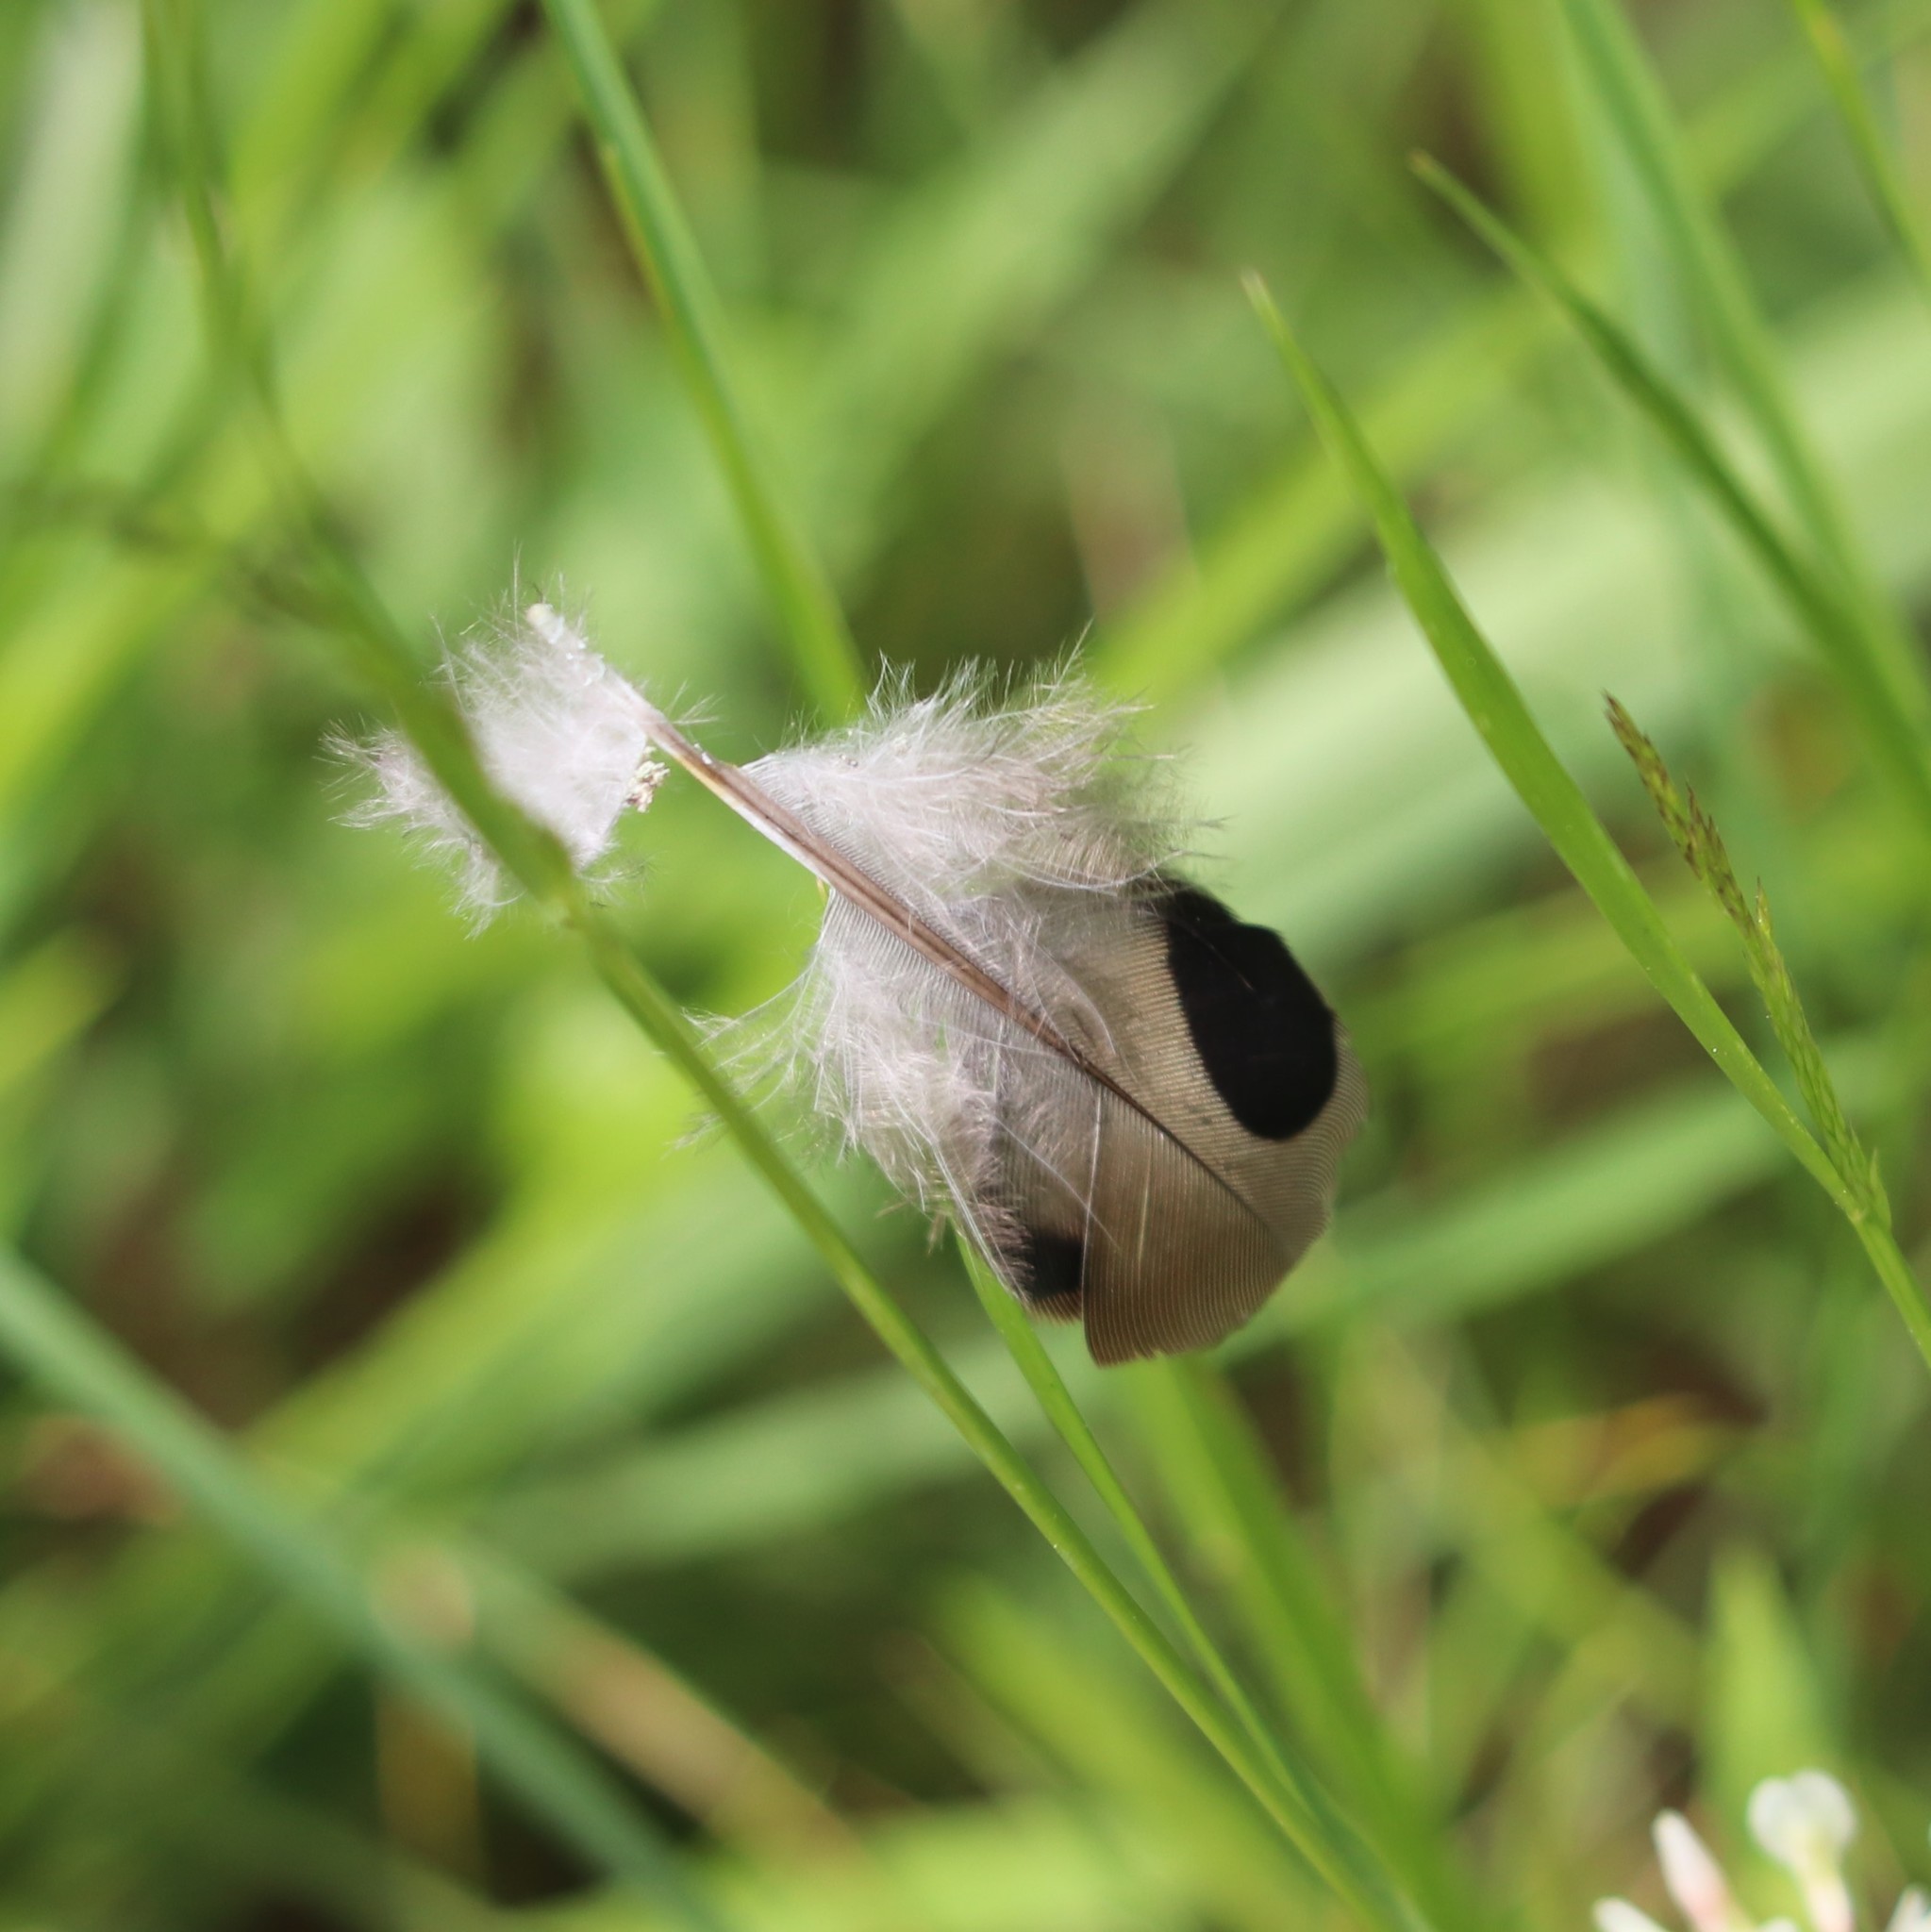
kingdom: Animalia
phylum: Chordata
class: Aves
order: Columbiformes
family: Columbidae
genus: Zenaida
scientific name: Zenaida macroura
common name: Mourning dove
